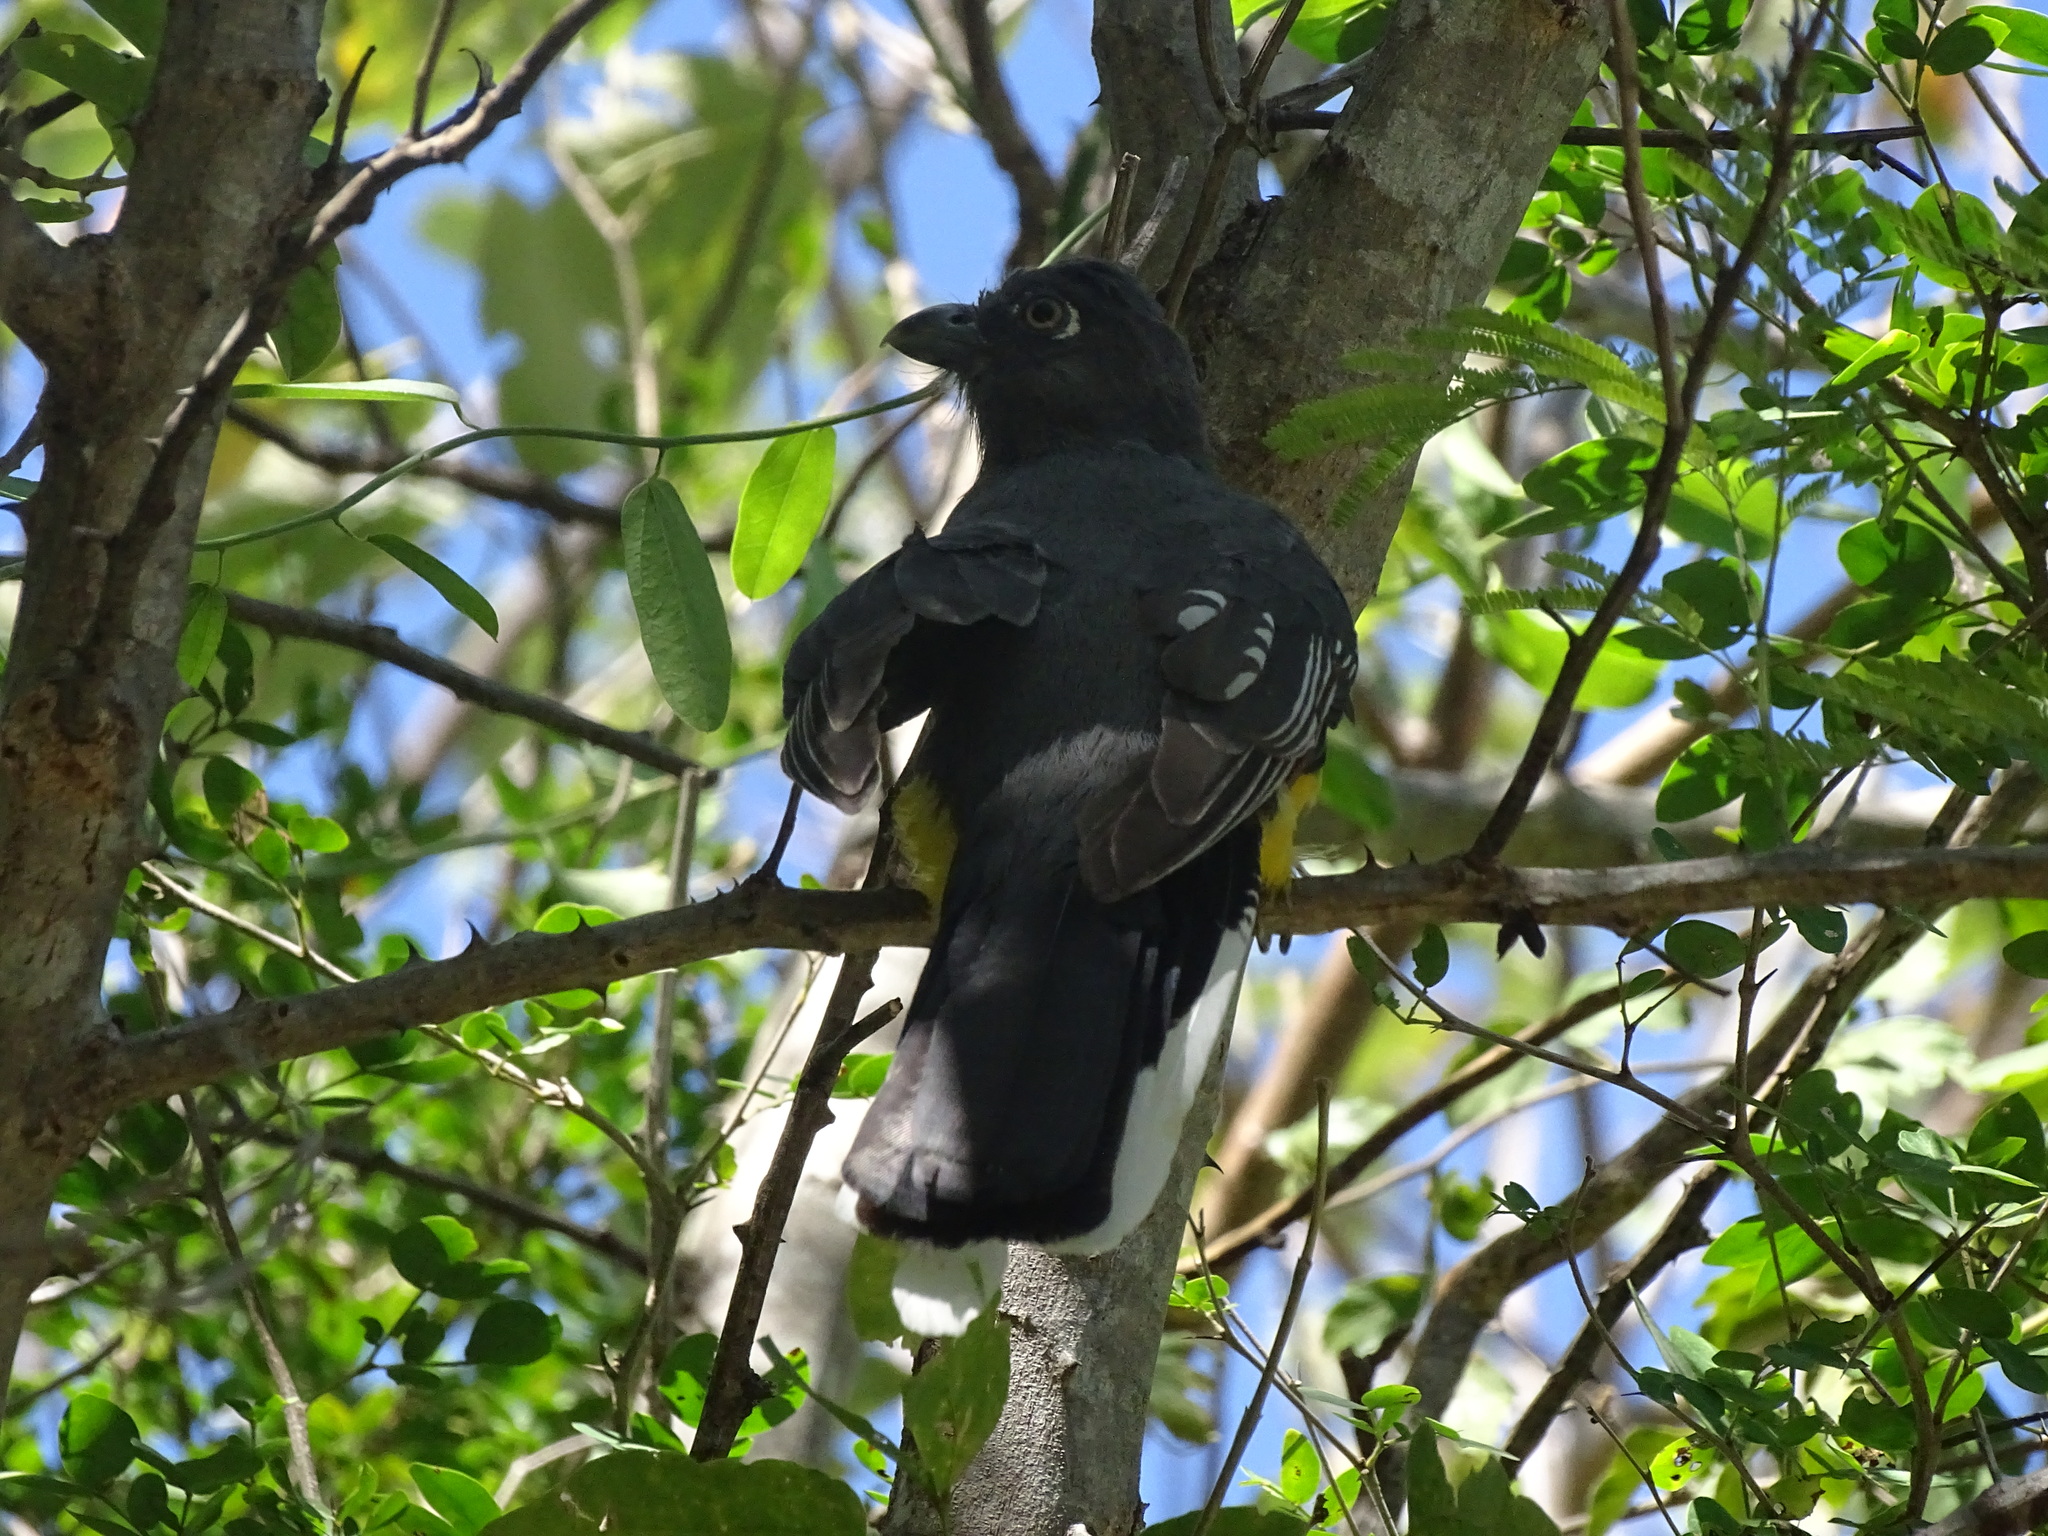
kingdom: Animalia
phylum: Chordata
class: Aves
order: Trogoniformes
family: Trogonidae
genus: Trogon
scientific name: Trogon citreolus
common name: Citreoline trogon
